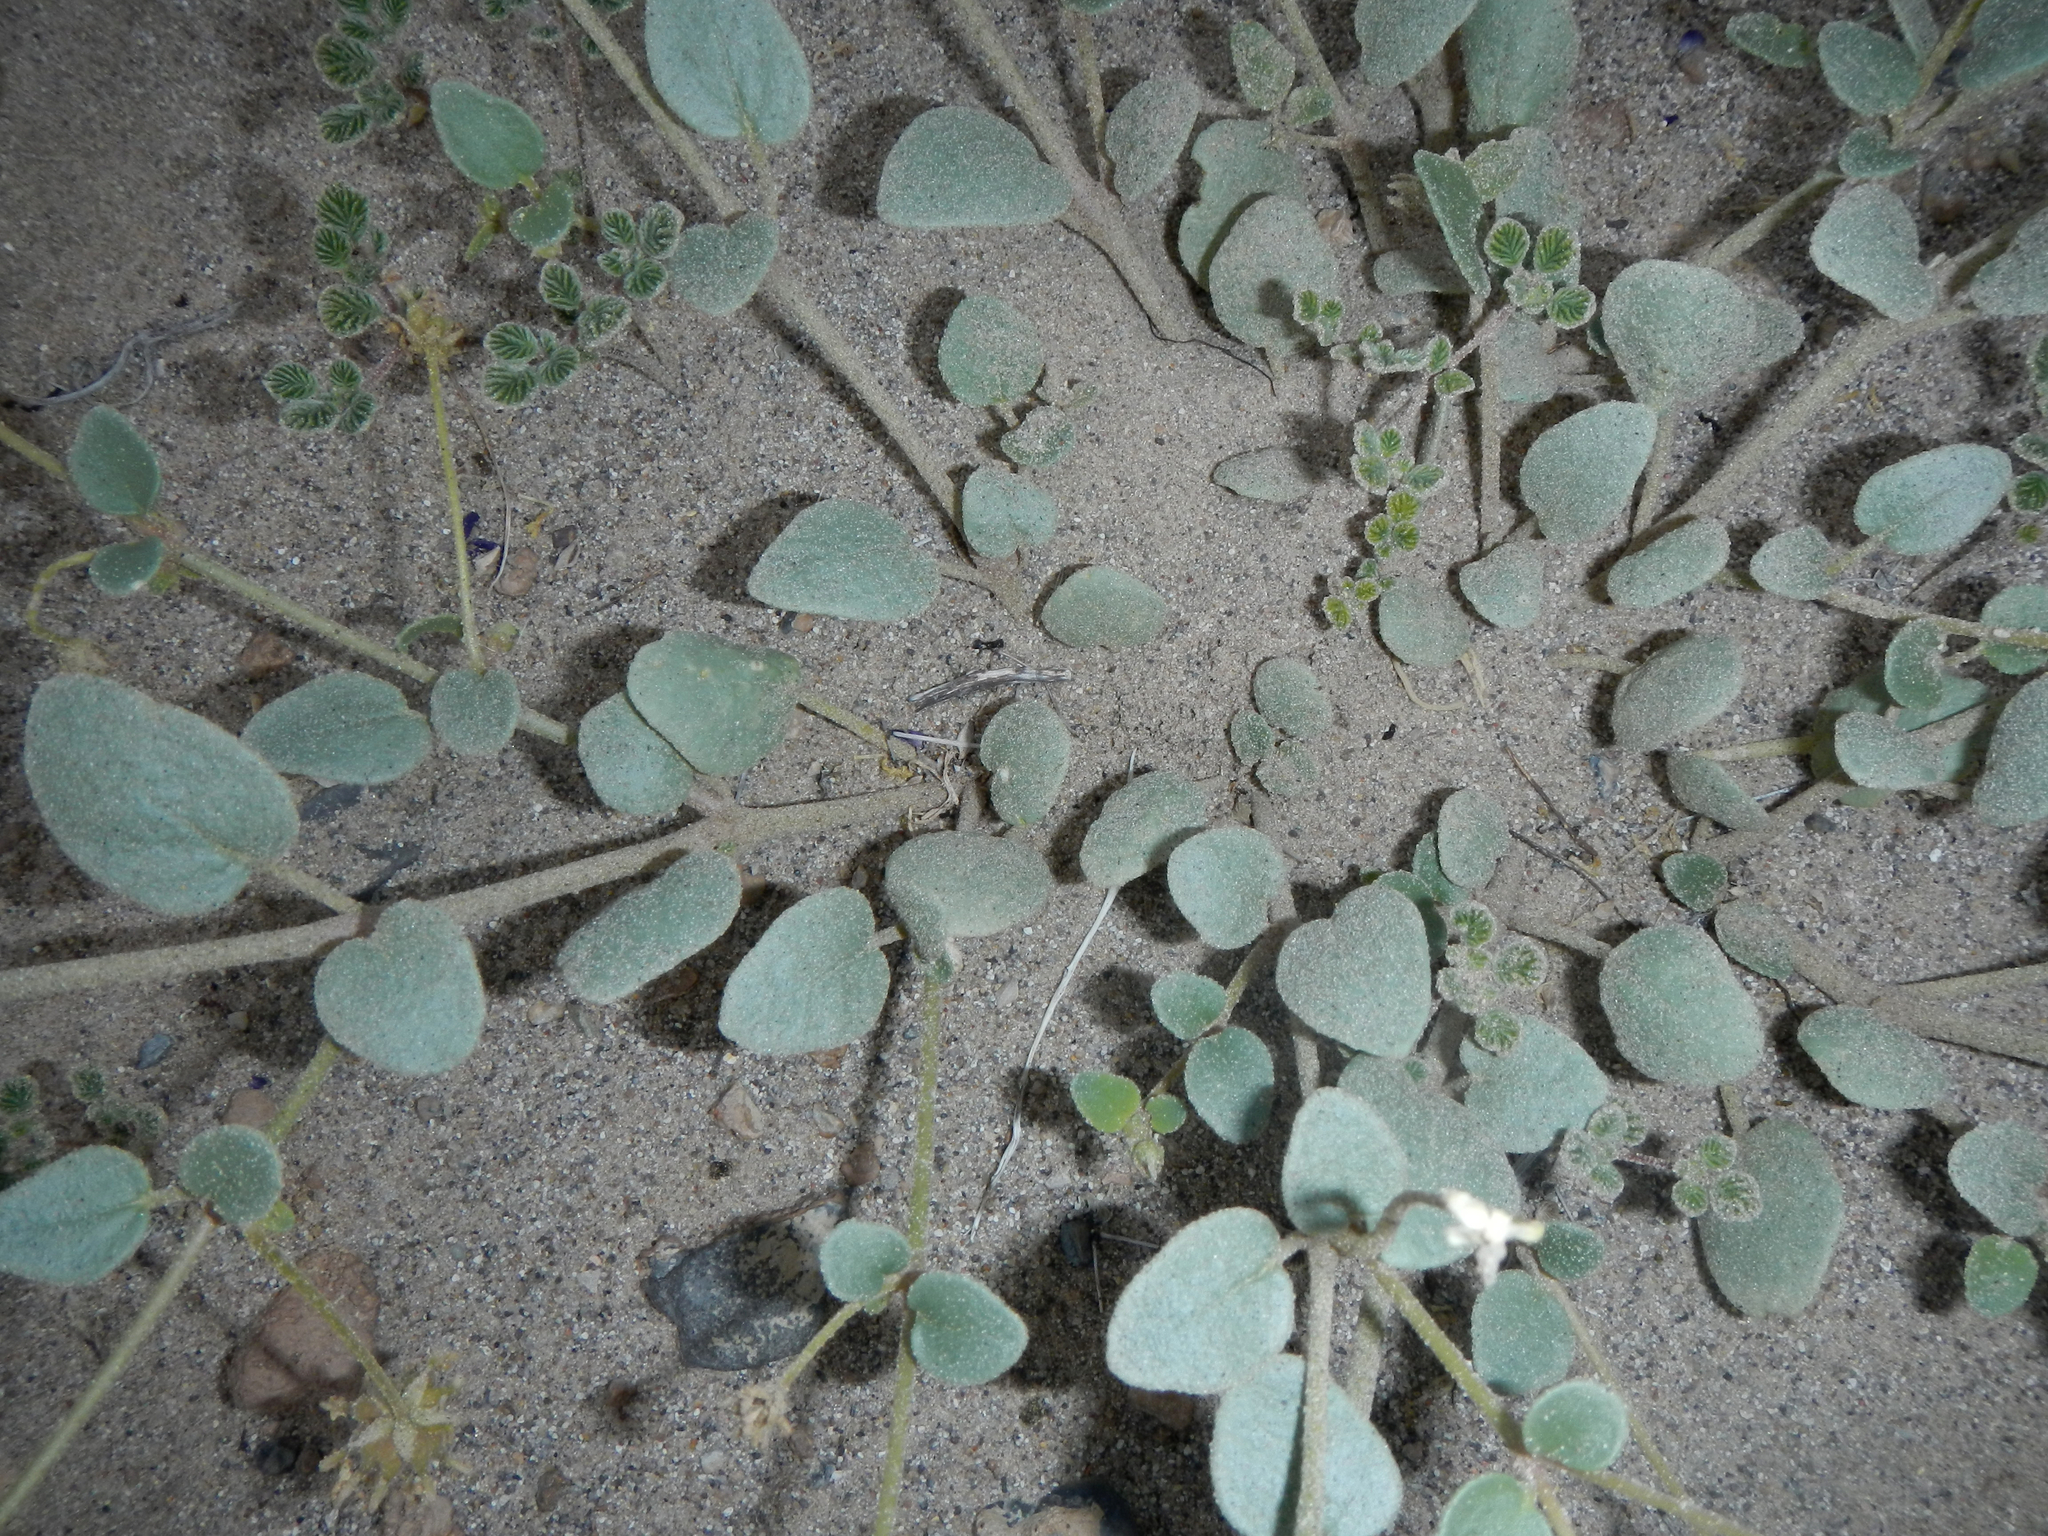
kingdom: Plantae
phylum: Tracheophyta
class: Magnoliopsida
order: Caryophyllales
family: Nyctaginaceae
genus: Abronia
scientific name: Abronia turbinata
